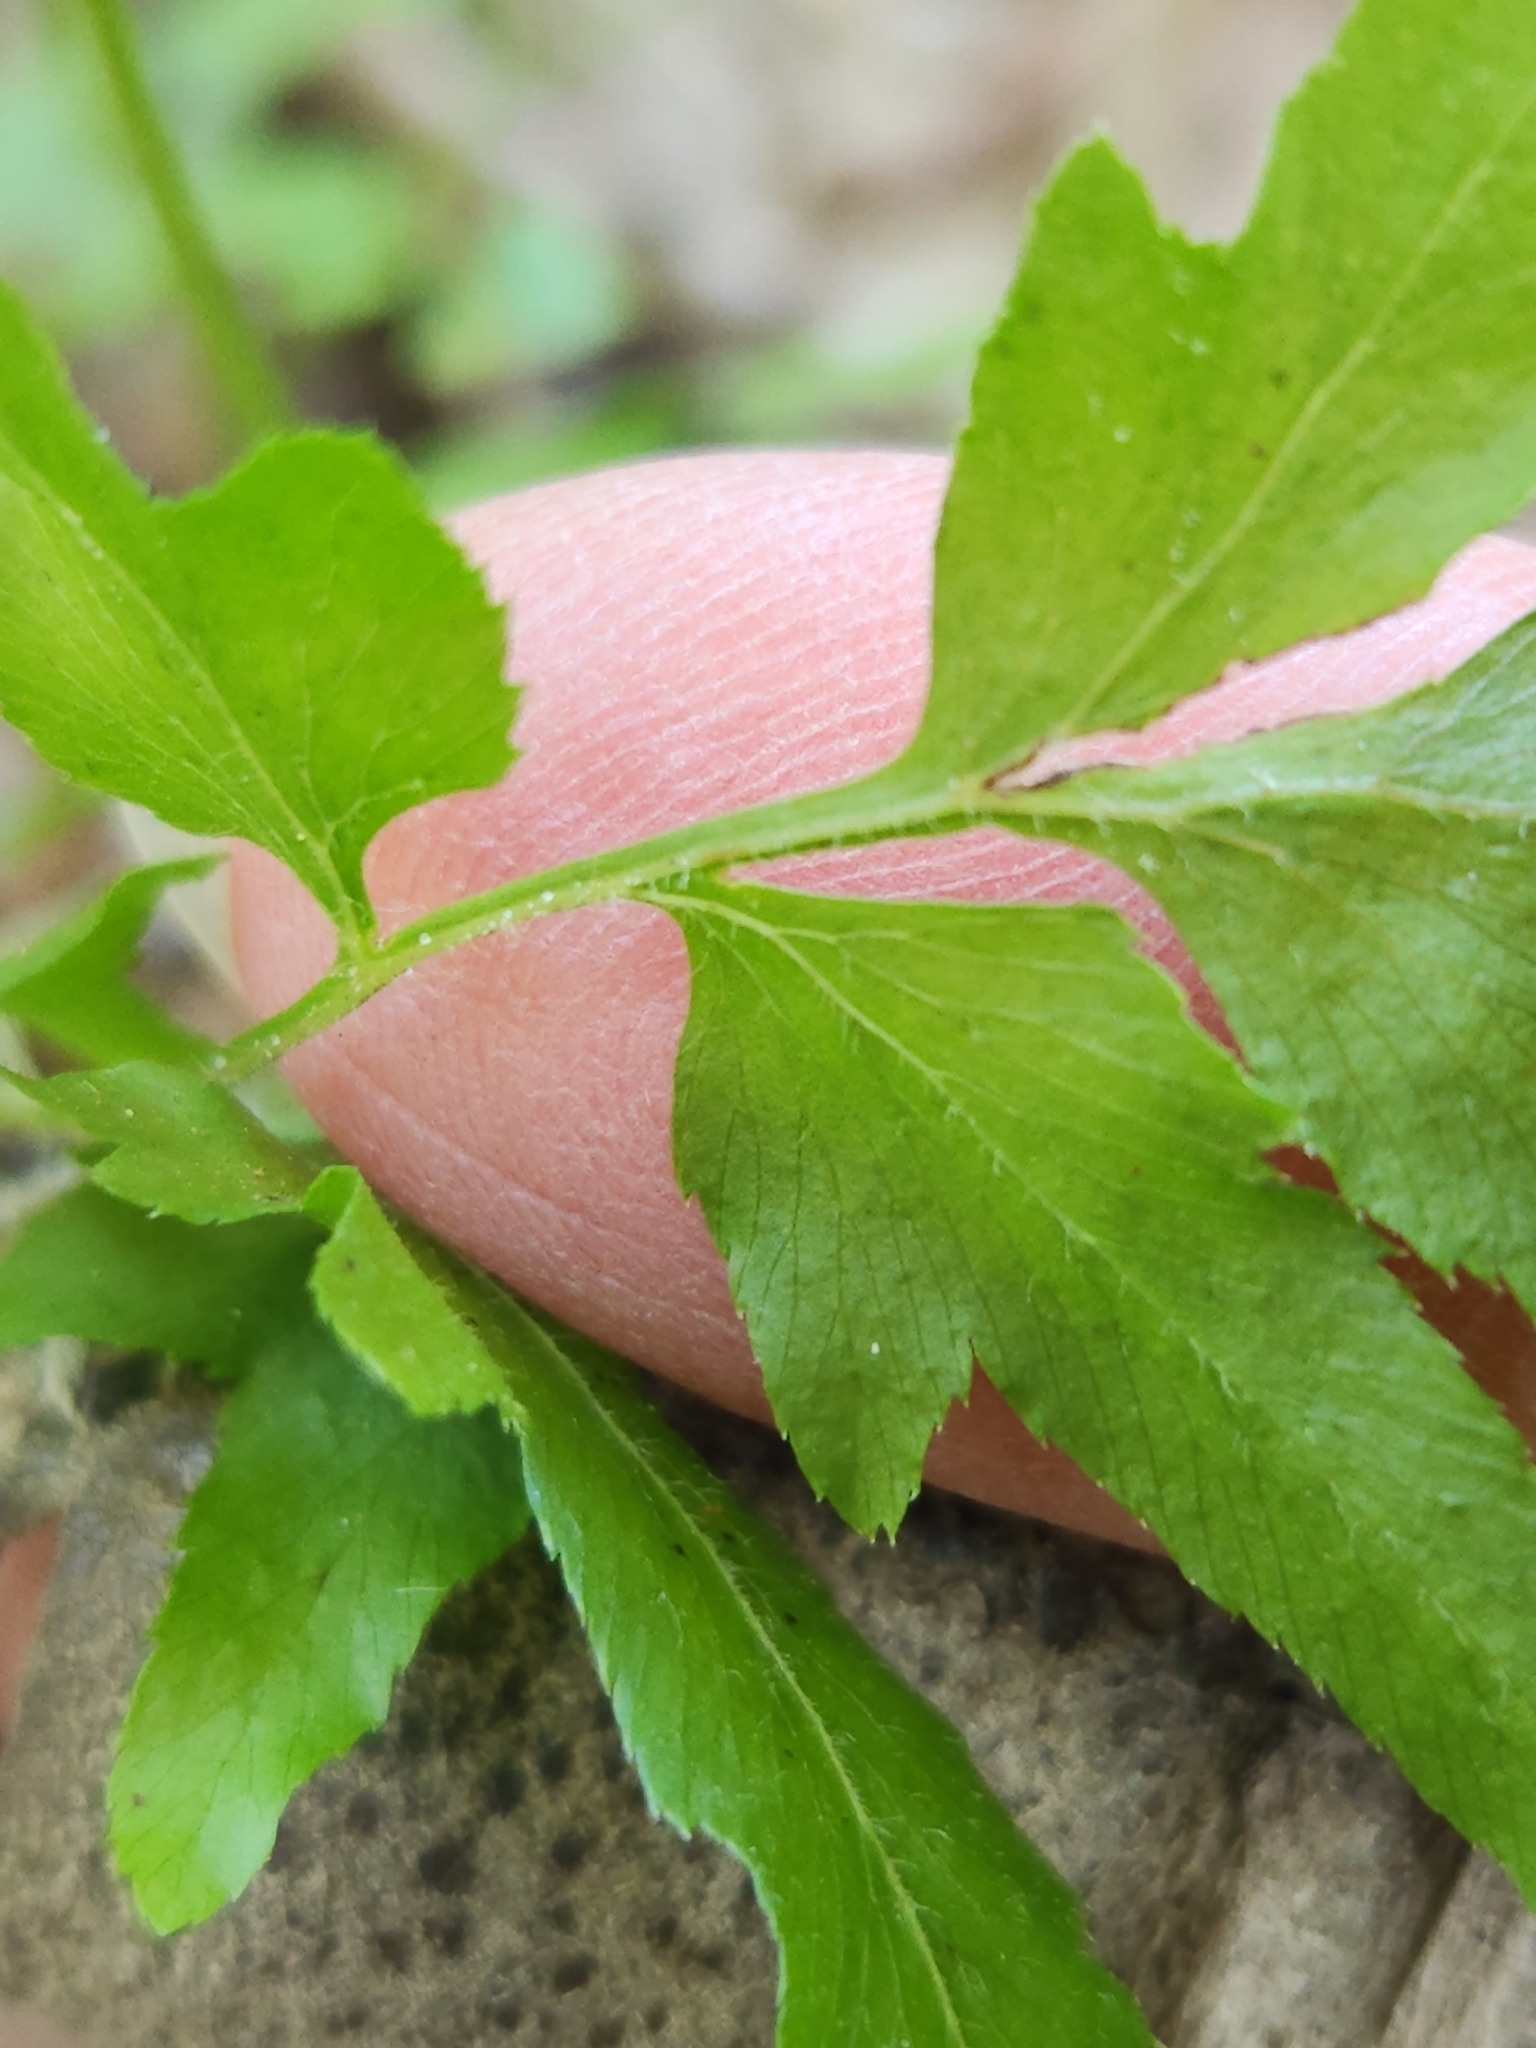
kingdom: Plantae
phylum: Tracheophyta
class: Polypodiopsida
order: Schizaeales
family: Lygodiaceae
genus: Lygodium
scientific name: Lygodium japonicum
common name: Japanese climbing fern
